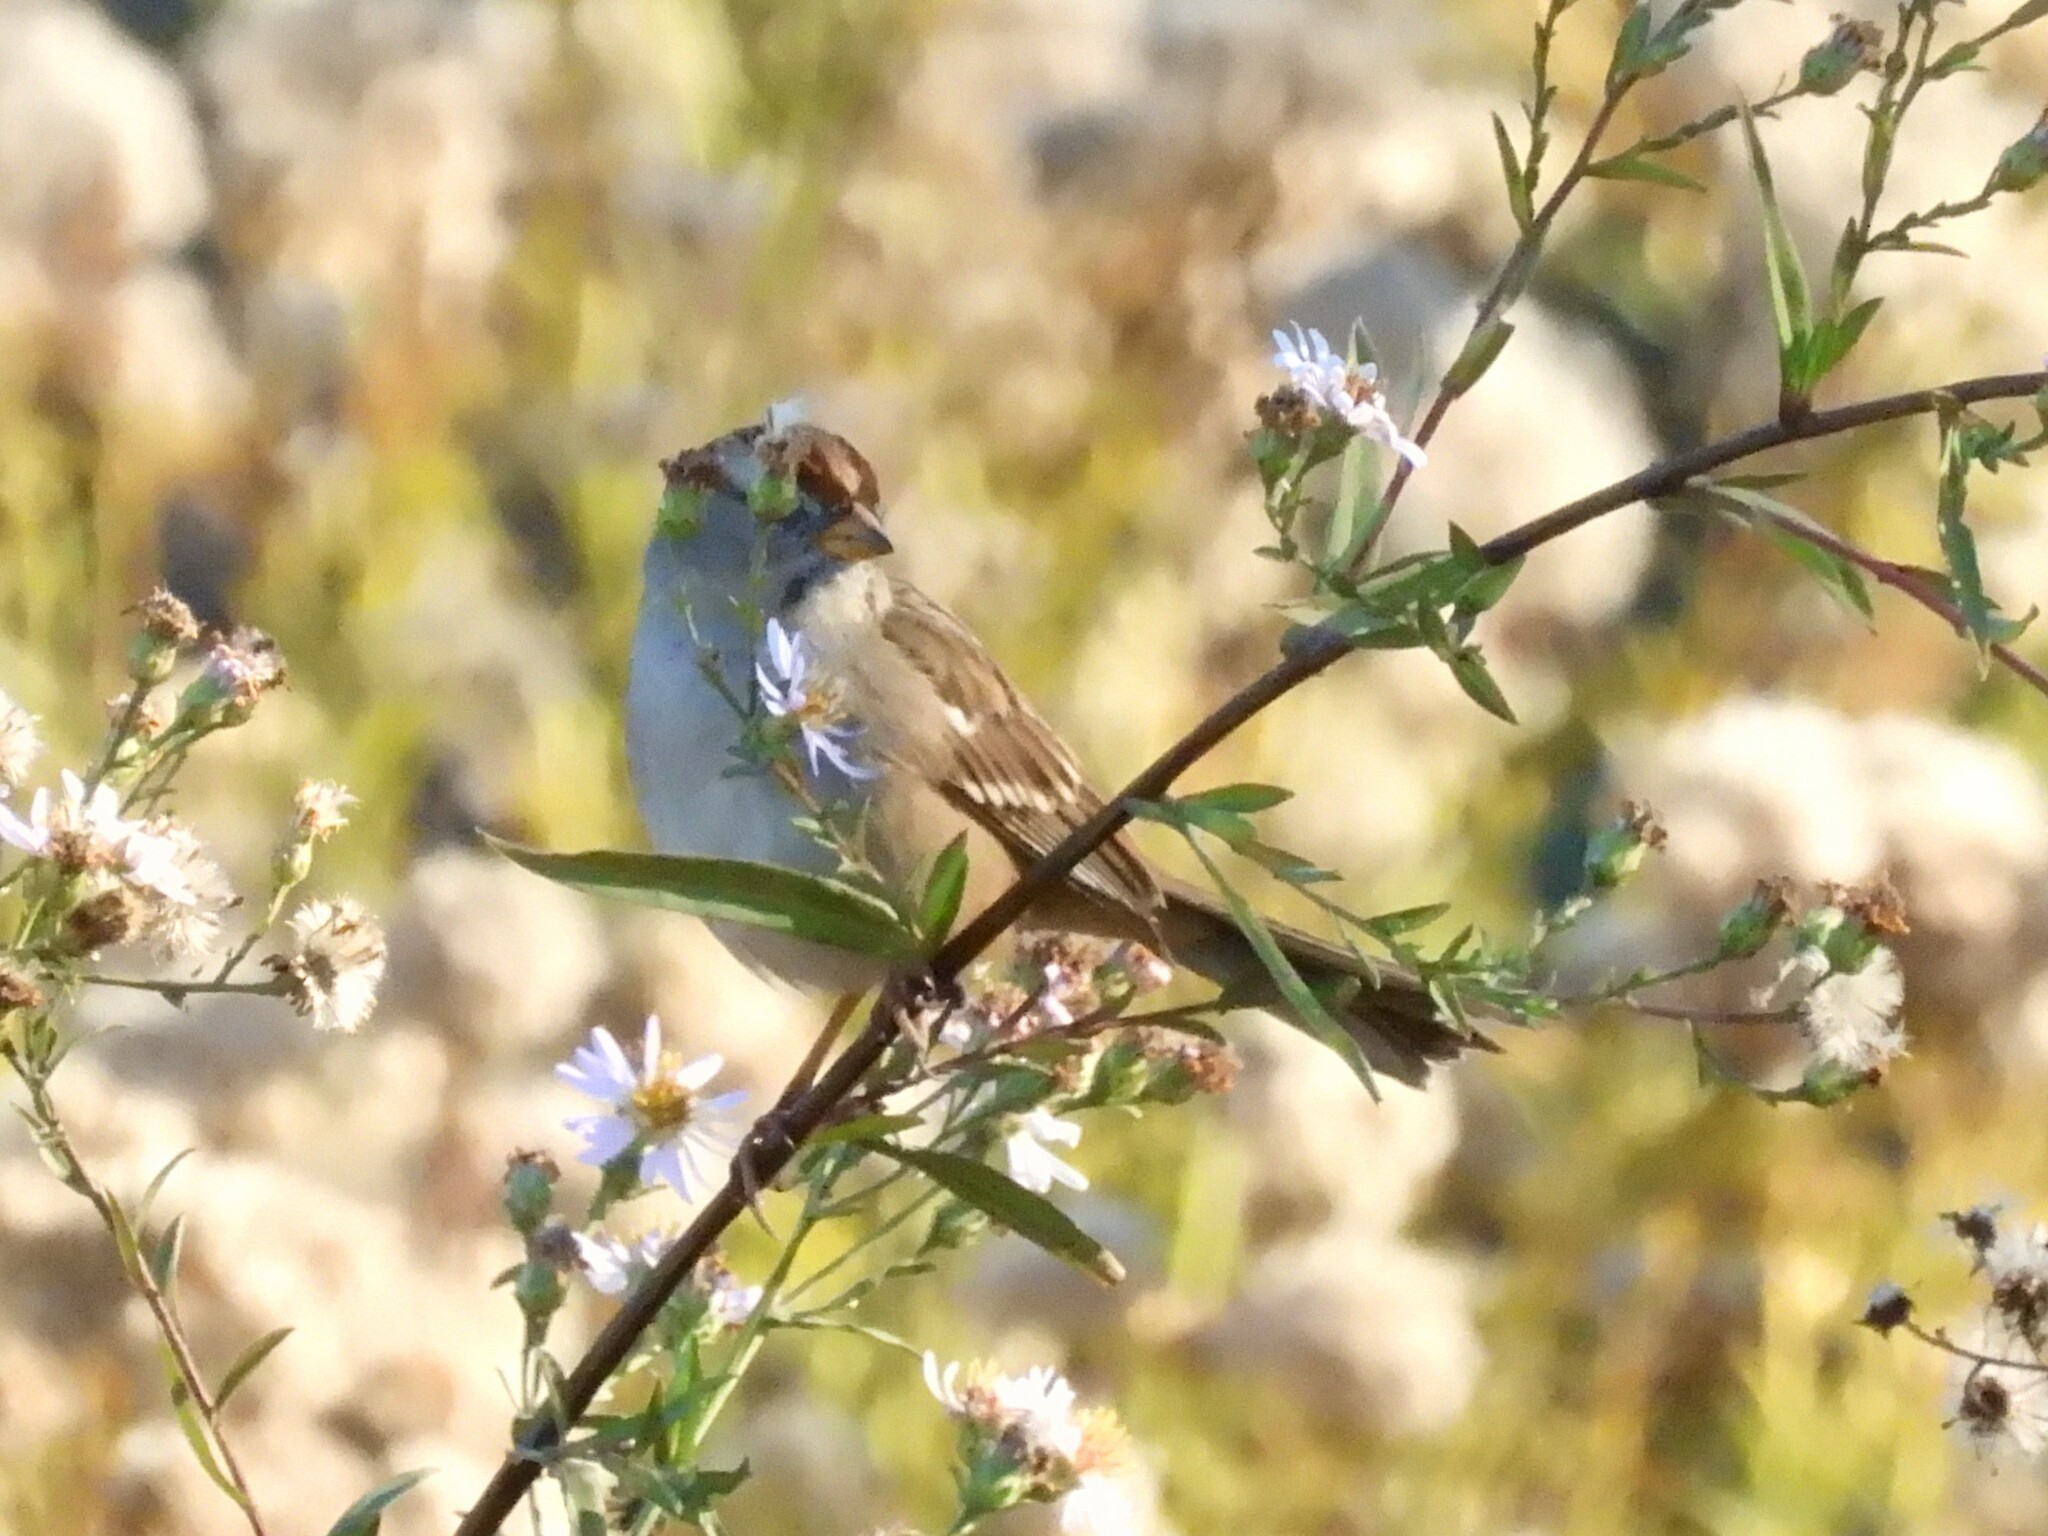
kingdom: Animalia
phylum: Chordata
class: Aves
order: Passeriformes
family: Passerellidae
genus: Zonotrichia
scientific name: Zonotrichia leucophrys
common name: White-crowned sparrow
